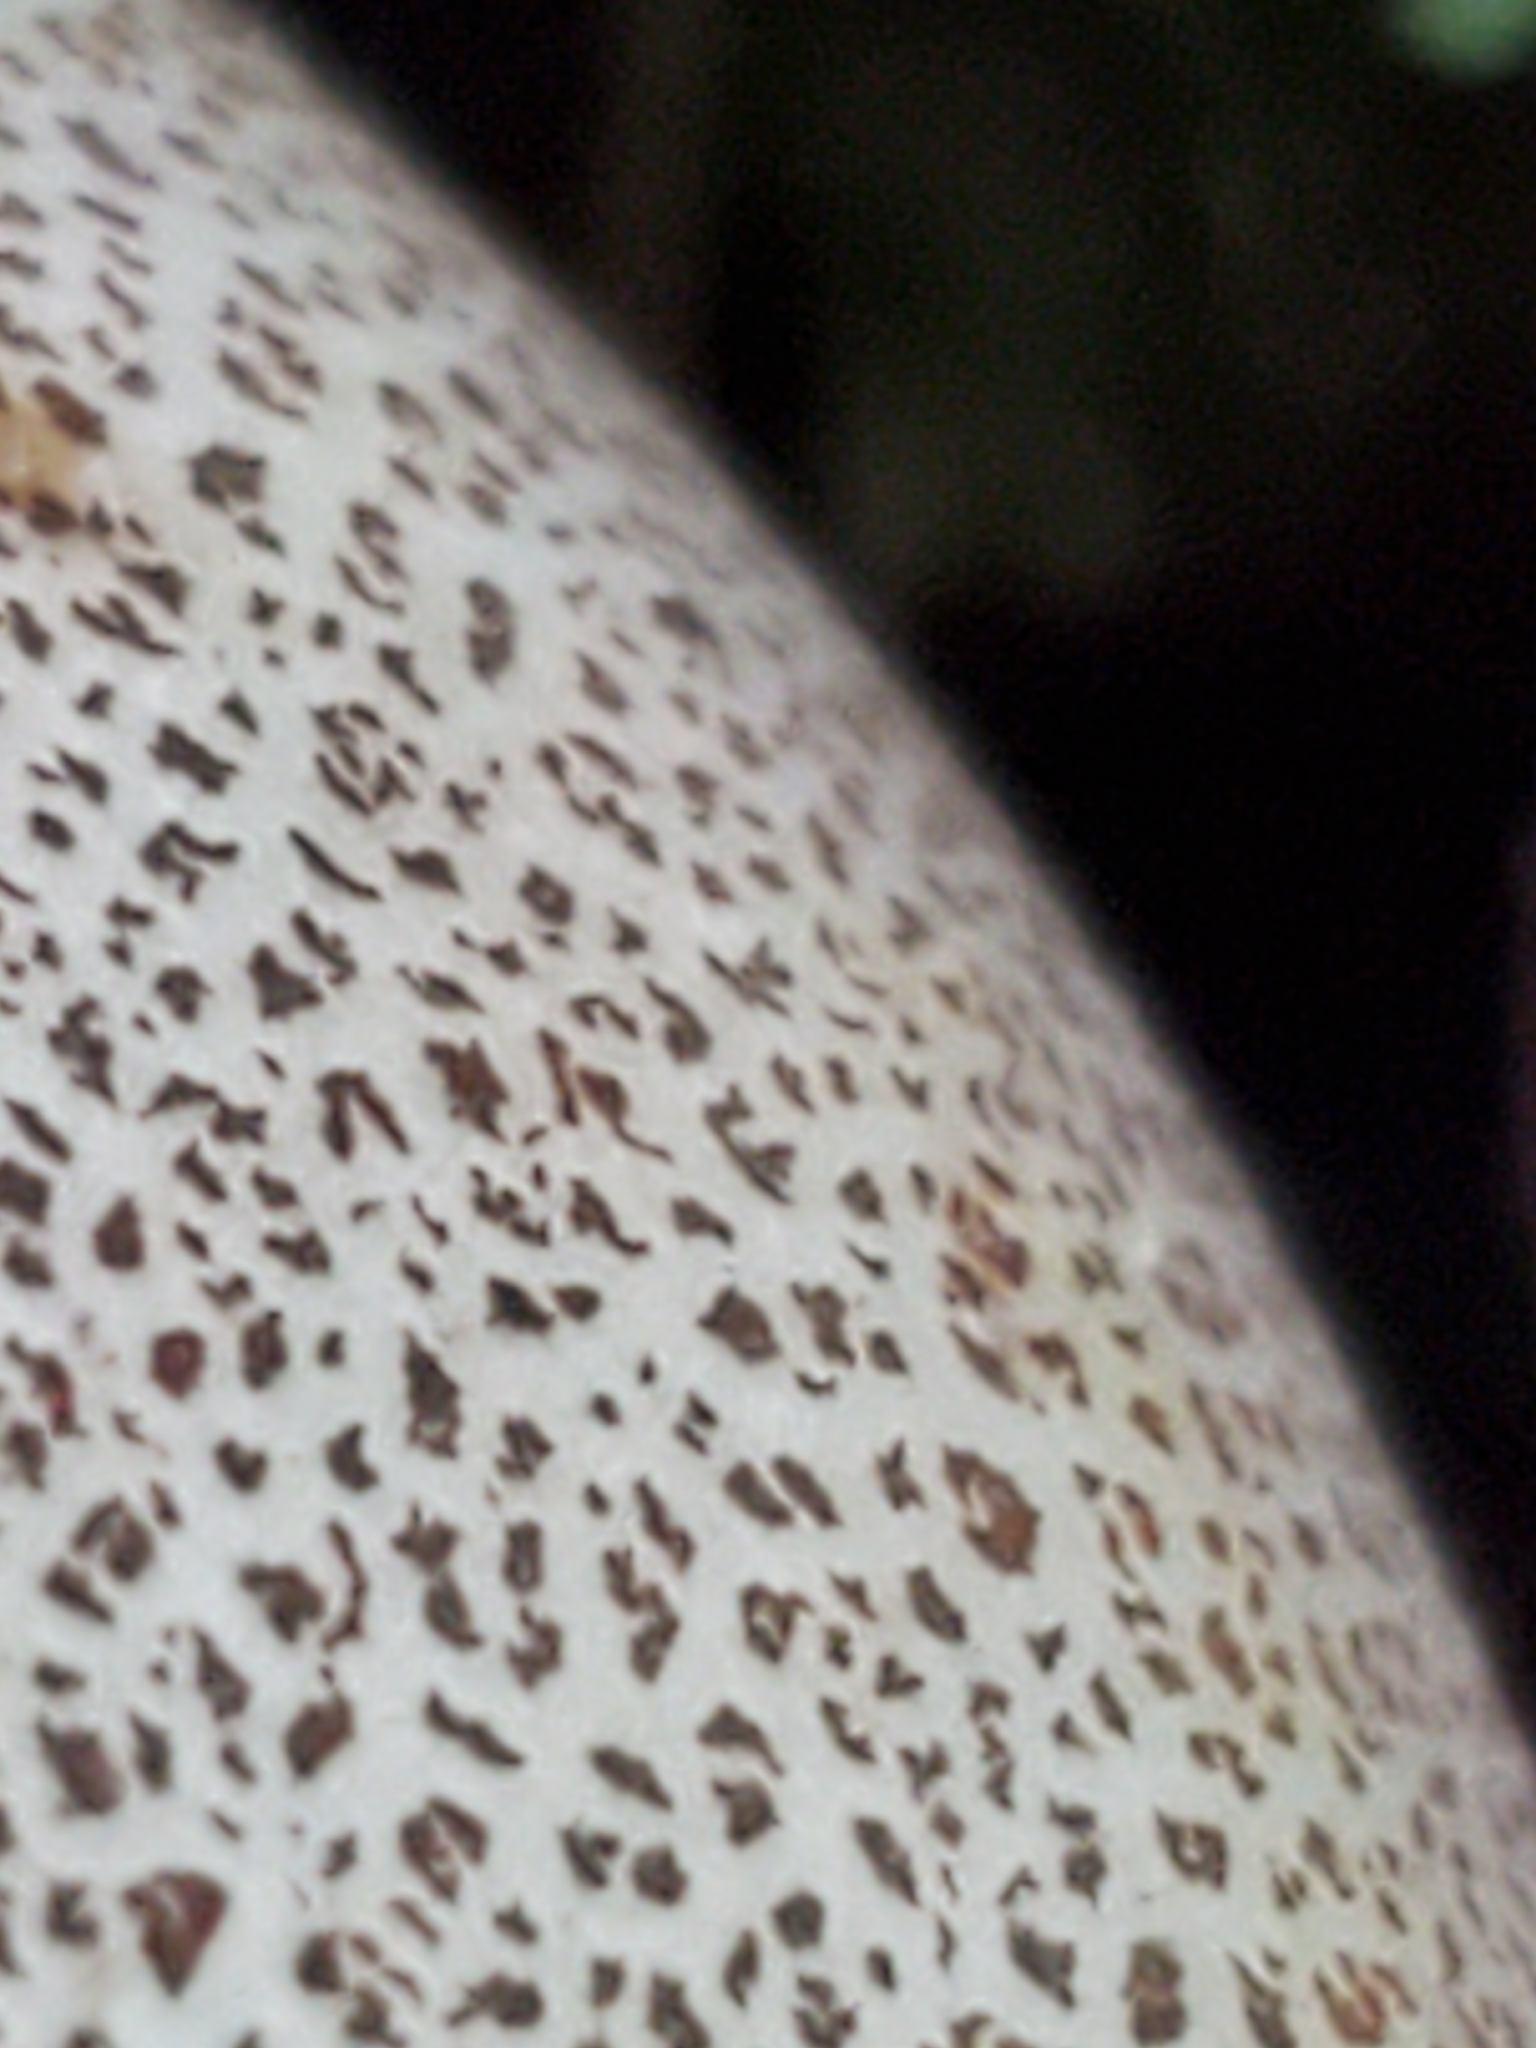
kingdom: Fungi
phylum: Basidiomycota
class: Agaricomycetes
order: Boletales
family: Sclerodermataceae
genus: Scleroderma
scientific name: Scleroderma citrinum
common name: Common earthball
